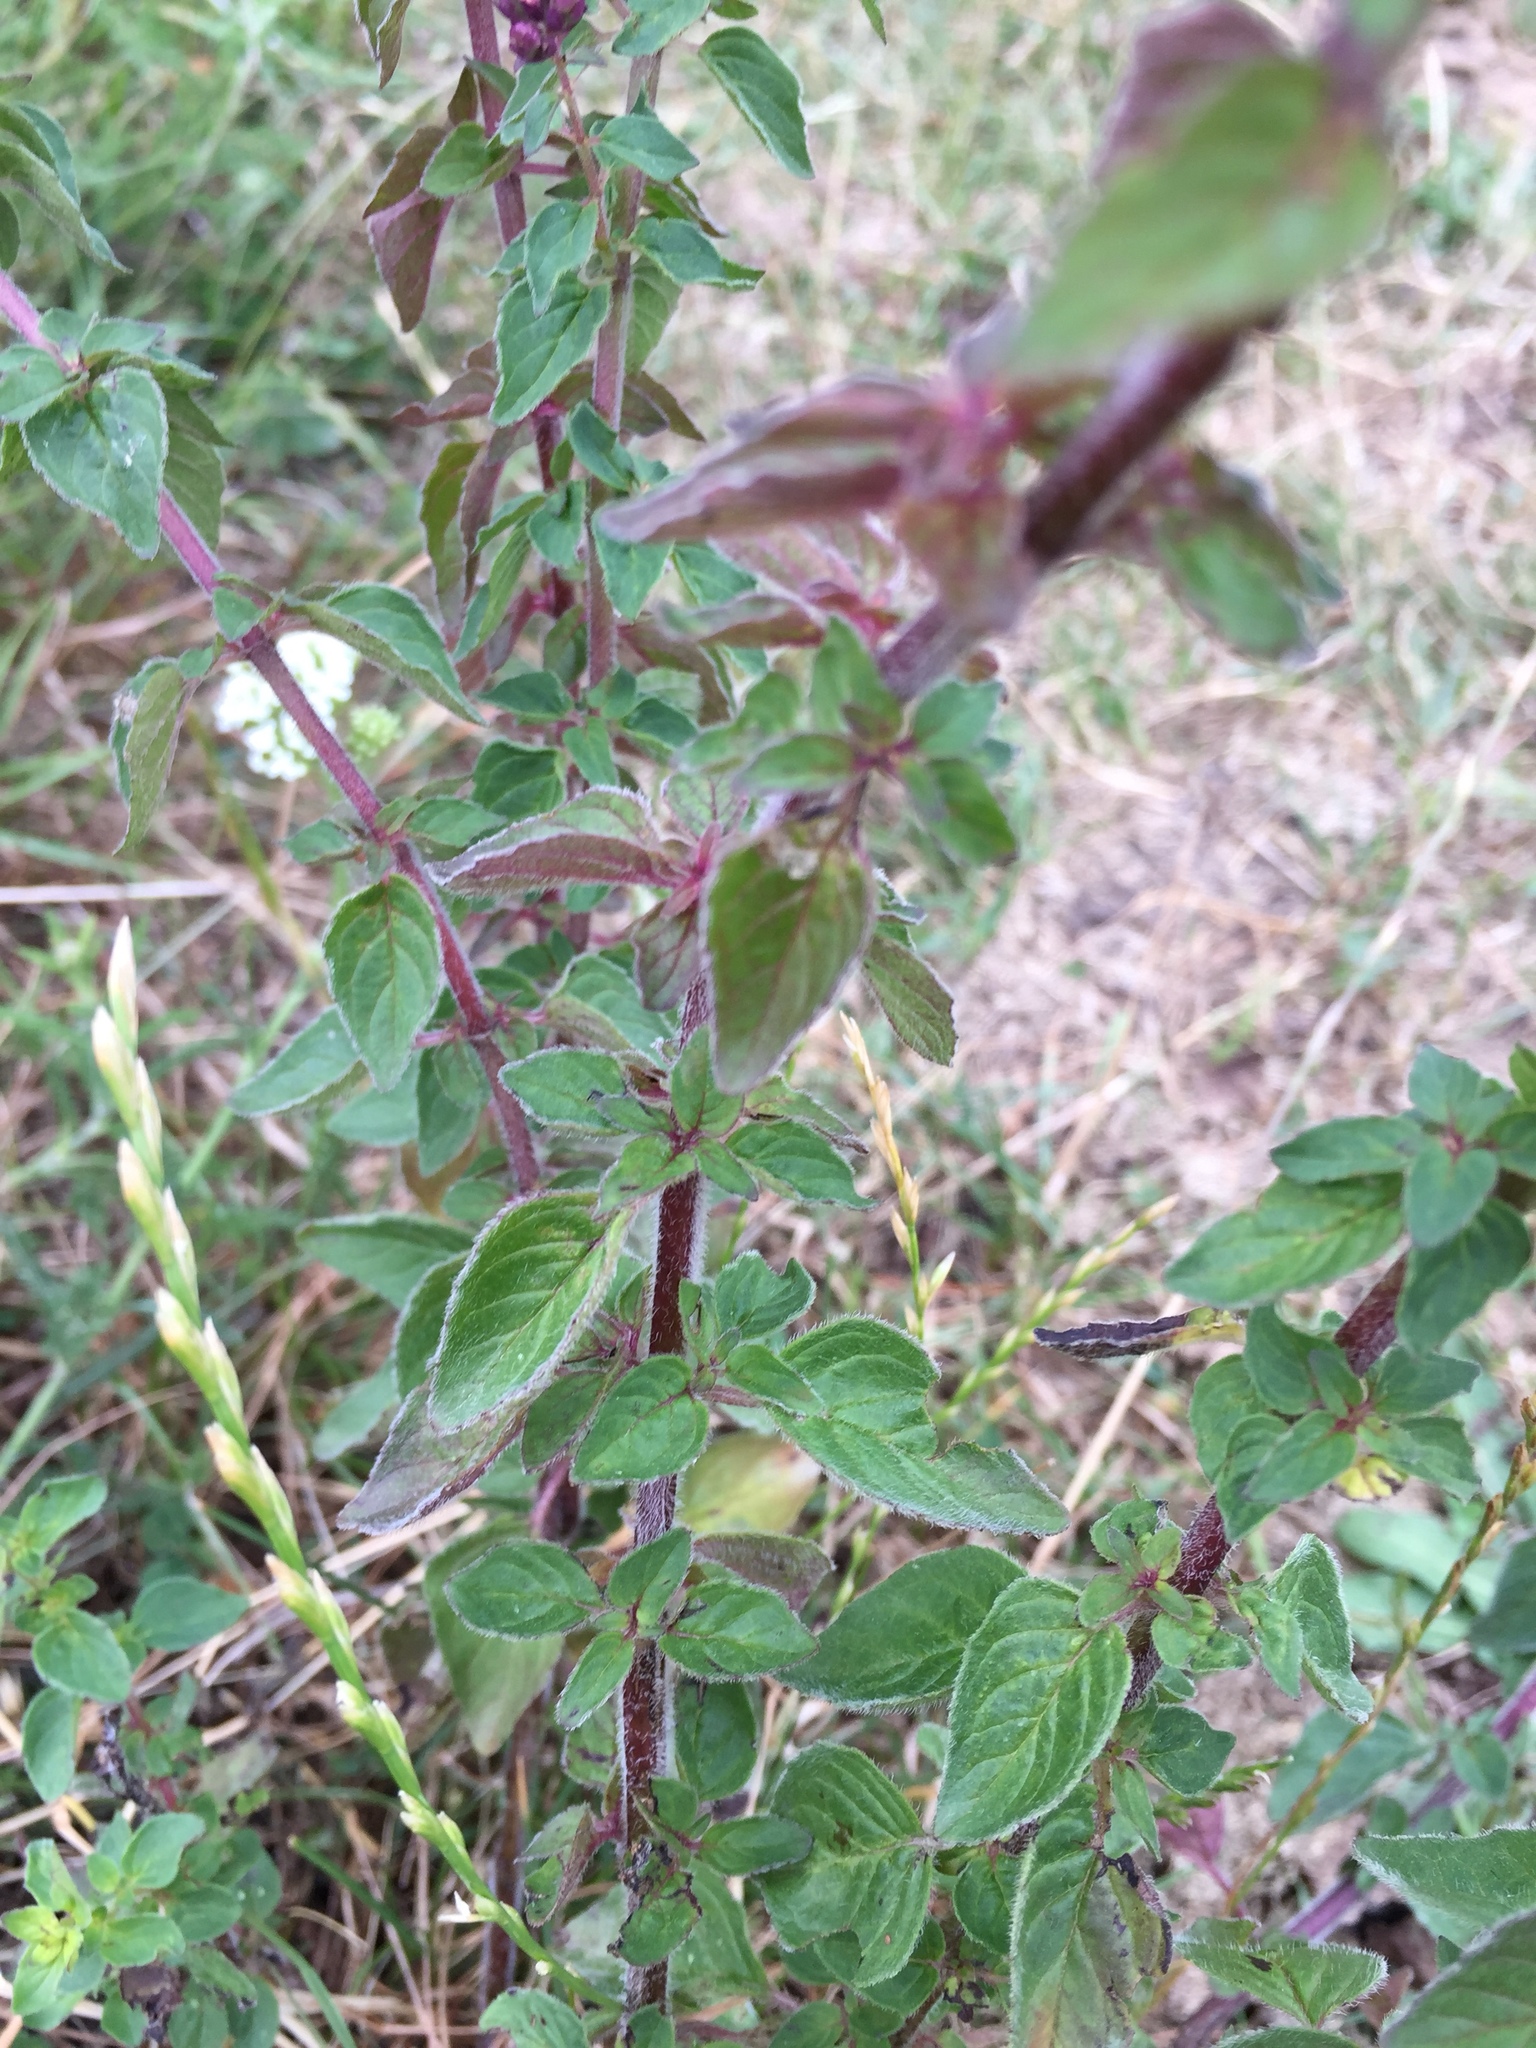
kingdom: Plantae
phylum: Tracheophyta
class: Magnoliopsida
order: Lamiales
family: Lamiaceae
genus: Origanum
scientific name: Origanum vulgare
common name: Wild marjoram
